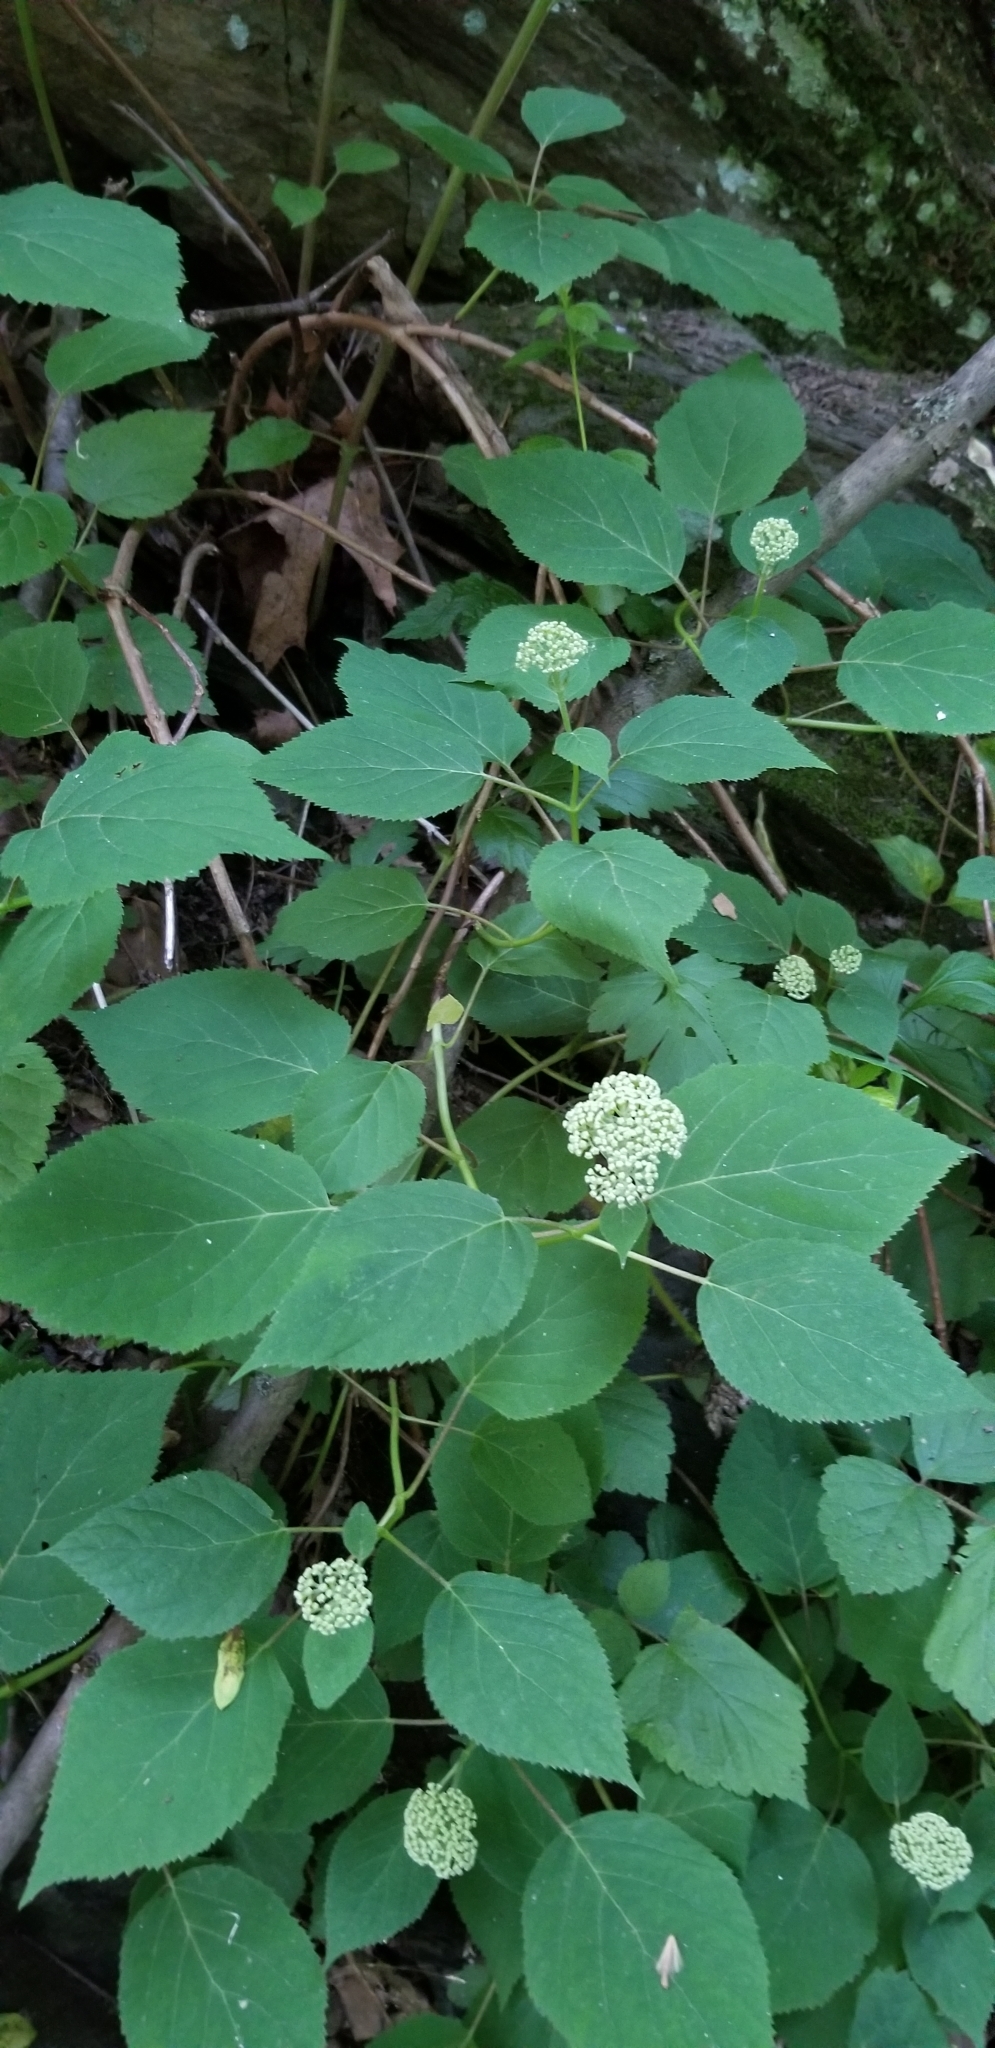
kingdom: Plantae
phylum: Tracheophyta
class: Magnoliopsida
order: Cornales
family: Hydrangeaceae
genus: Hydrangea
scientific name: Hydrangea arborescens
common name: Sevenbark
